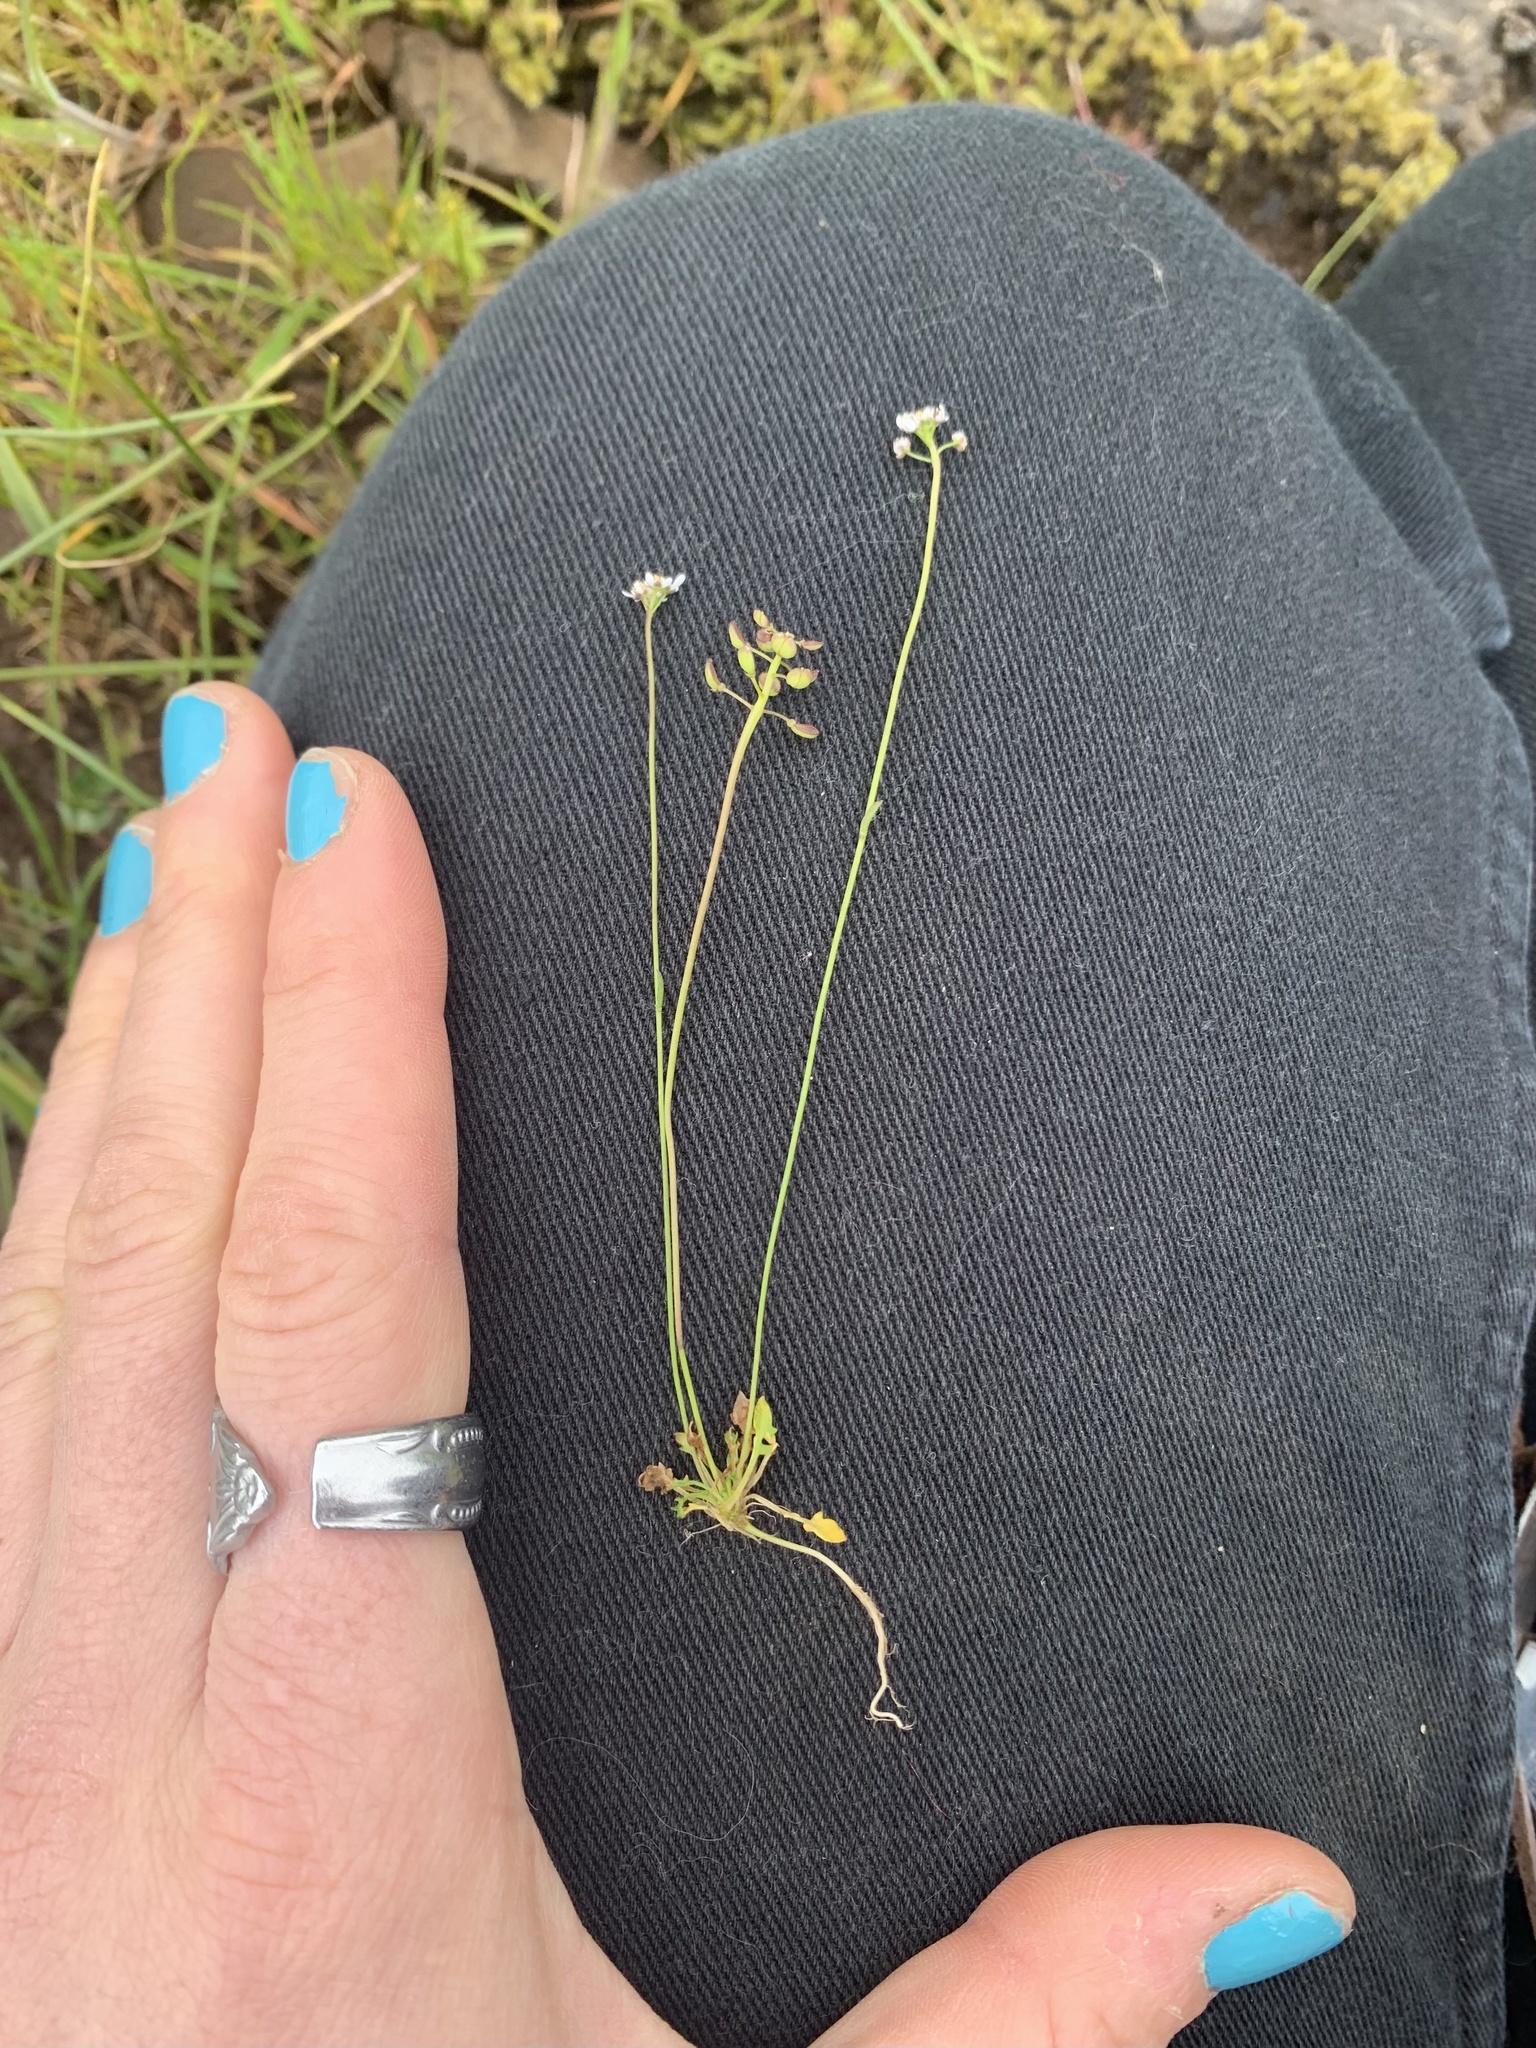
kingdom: Plantae
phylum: Tracheophyta
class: Magnoliopsida
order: Brassicales
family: Brassicaceae
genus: Teesdalia
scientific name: Teesdalia nudicaulis
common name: Shepherd's cress
